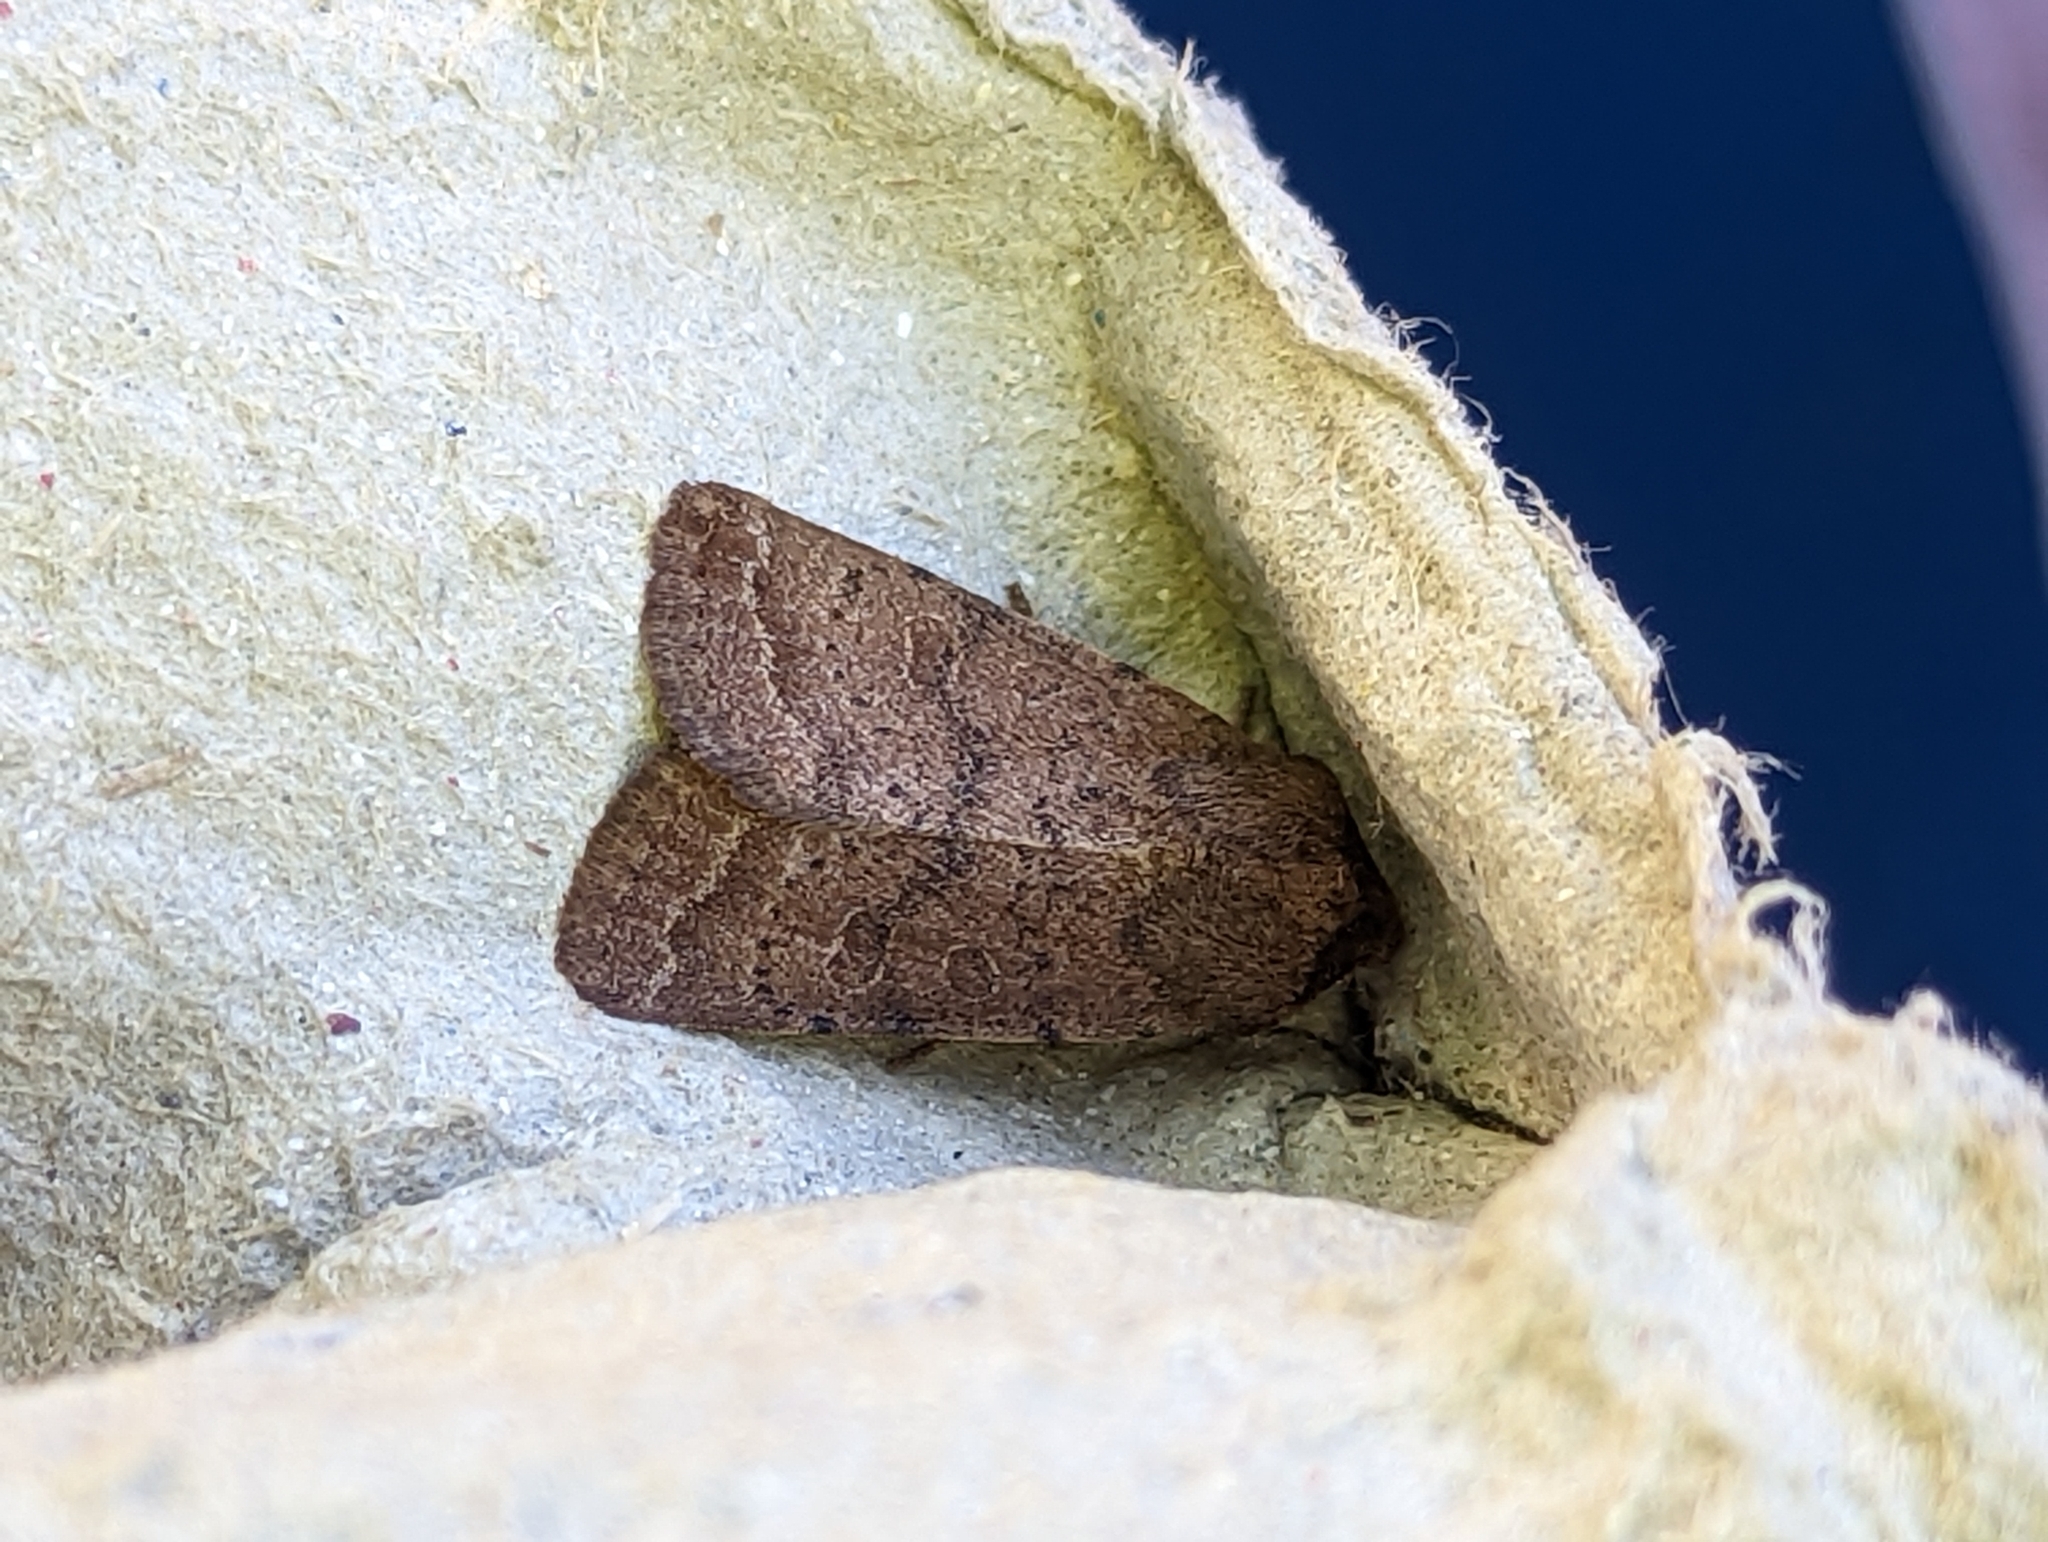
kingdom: Animalia
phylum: Arthropoda
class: Insecta
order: Lepidoptera
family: Noctuidae
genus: Hoplodrina
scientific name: Hoplodrina octogenaria
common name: Uncertain
